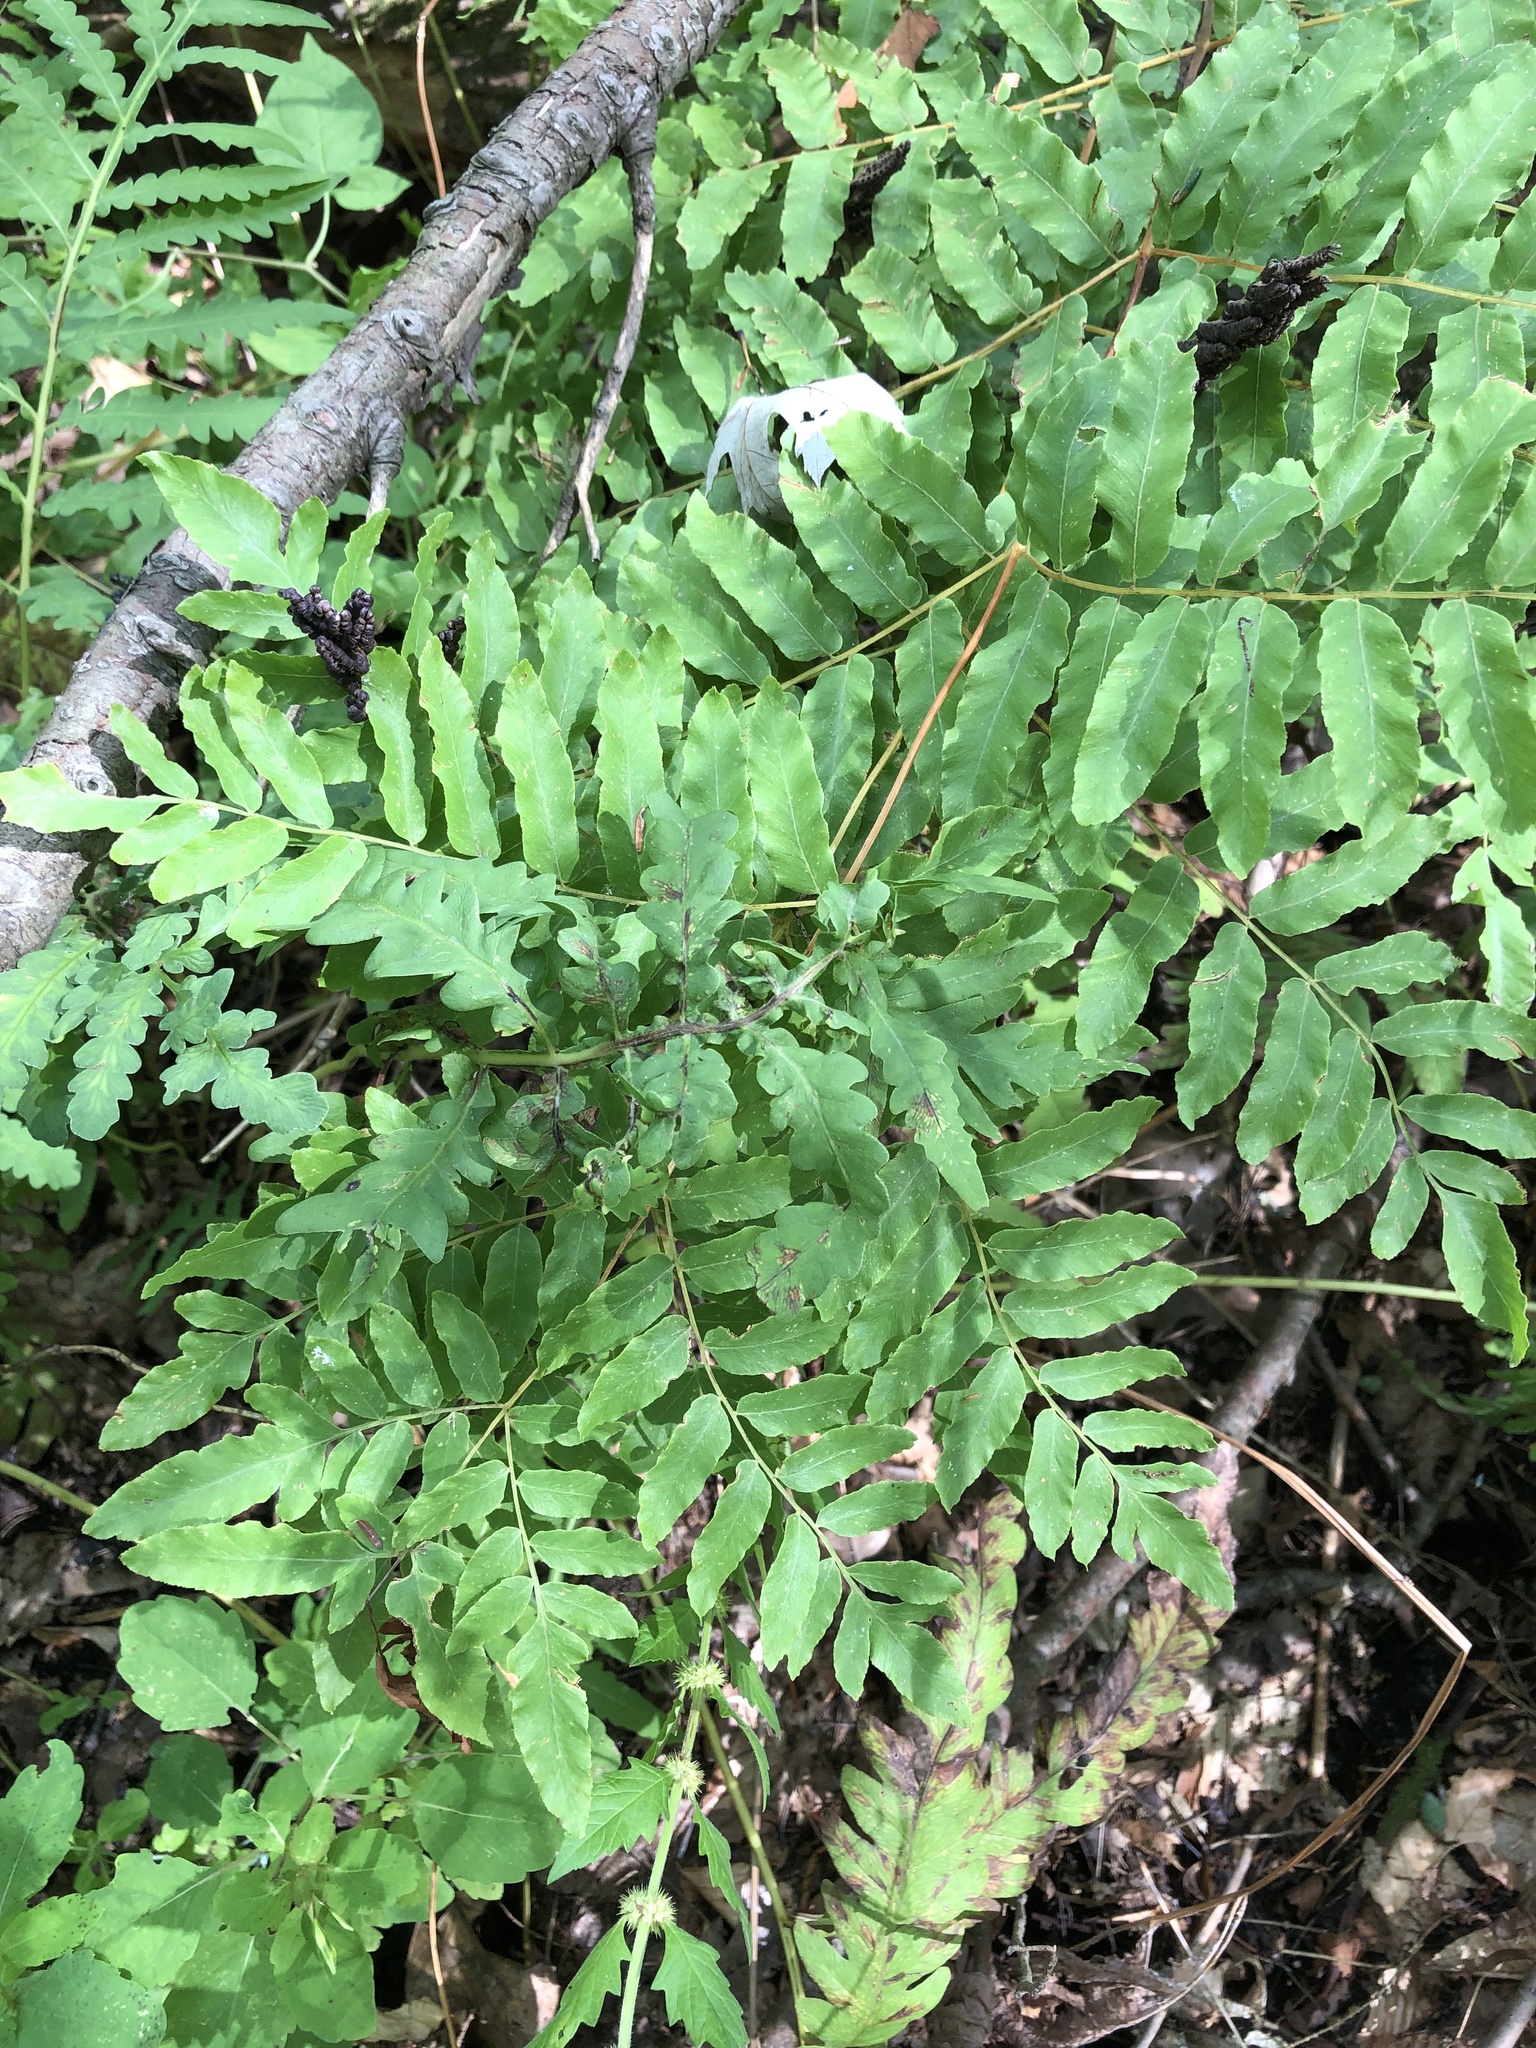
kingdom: Plantae
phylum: Tracheophyta
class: Polypodiopsida
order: Osmundales
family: Osmundaceae
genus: Osmunda
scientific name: Osmunda spectabilis
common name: American royal fern
